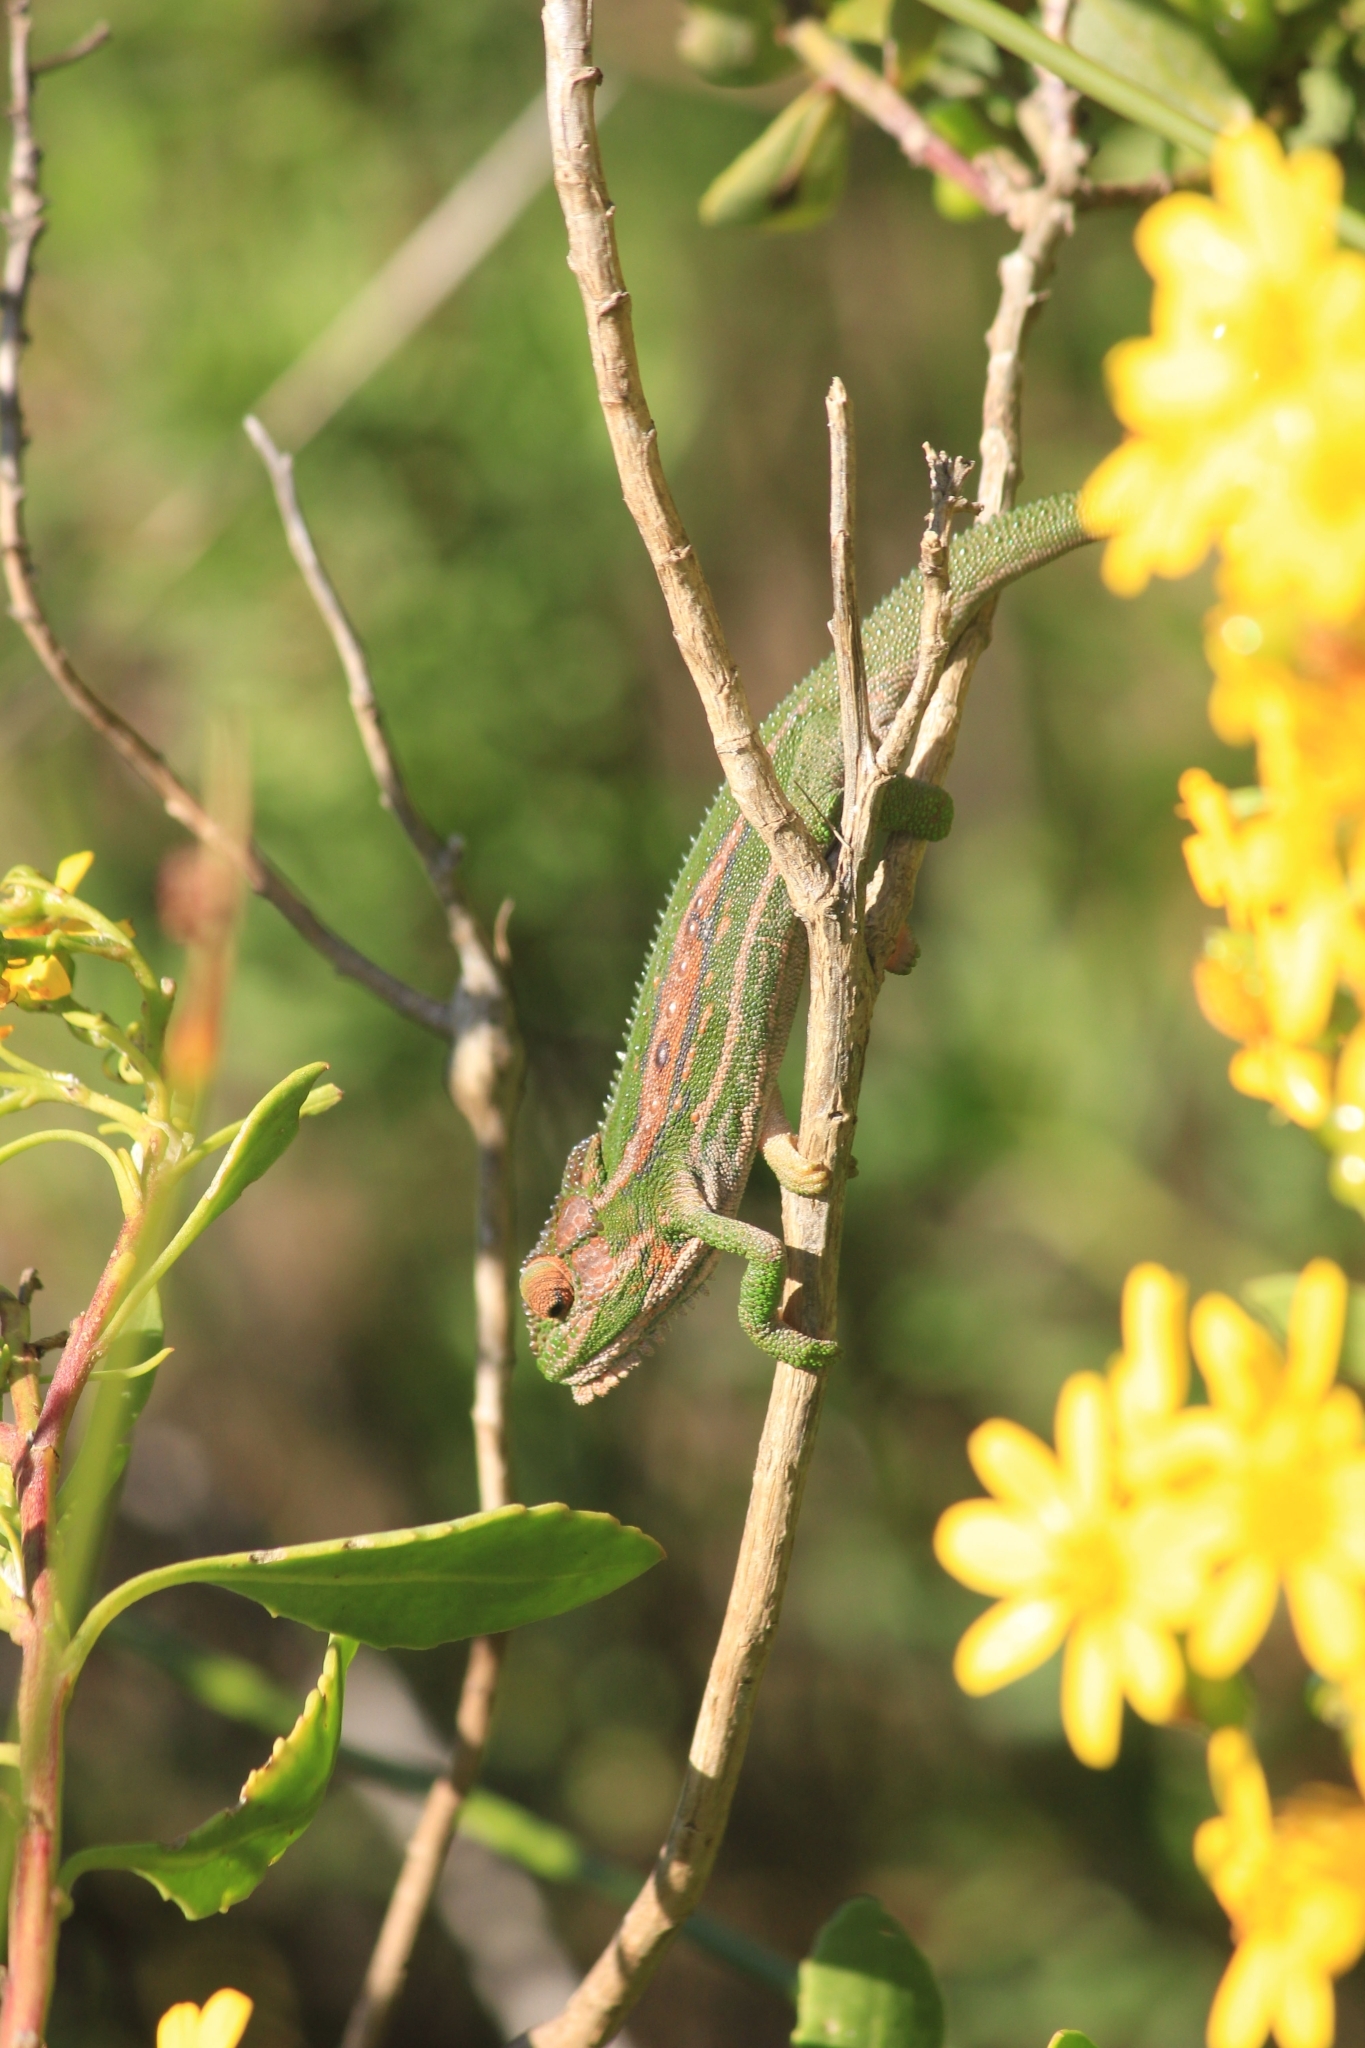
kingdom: Animalia
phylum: Chordata
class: Squamata
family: Chamaeleonidae
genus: Bradypodion
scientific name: Bradypodion pumilum
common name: Cape dwarf chameleon
